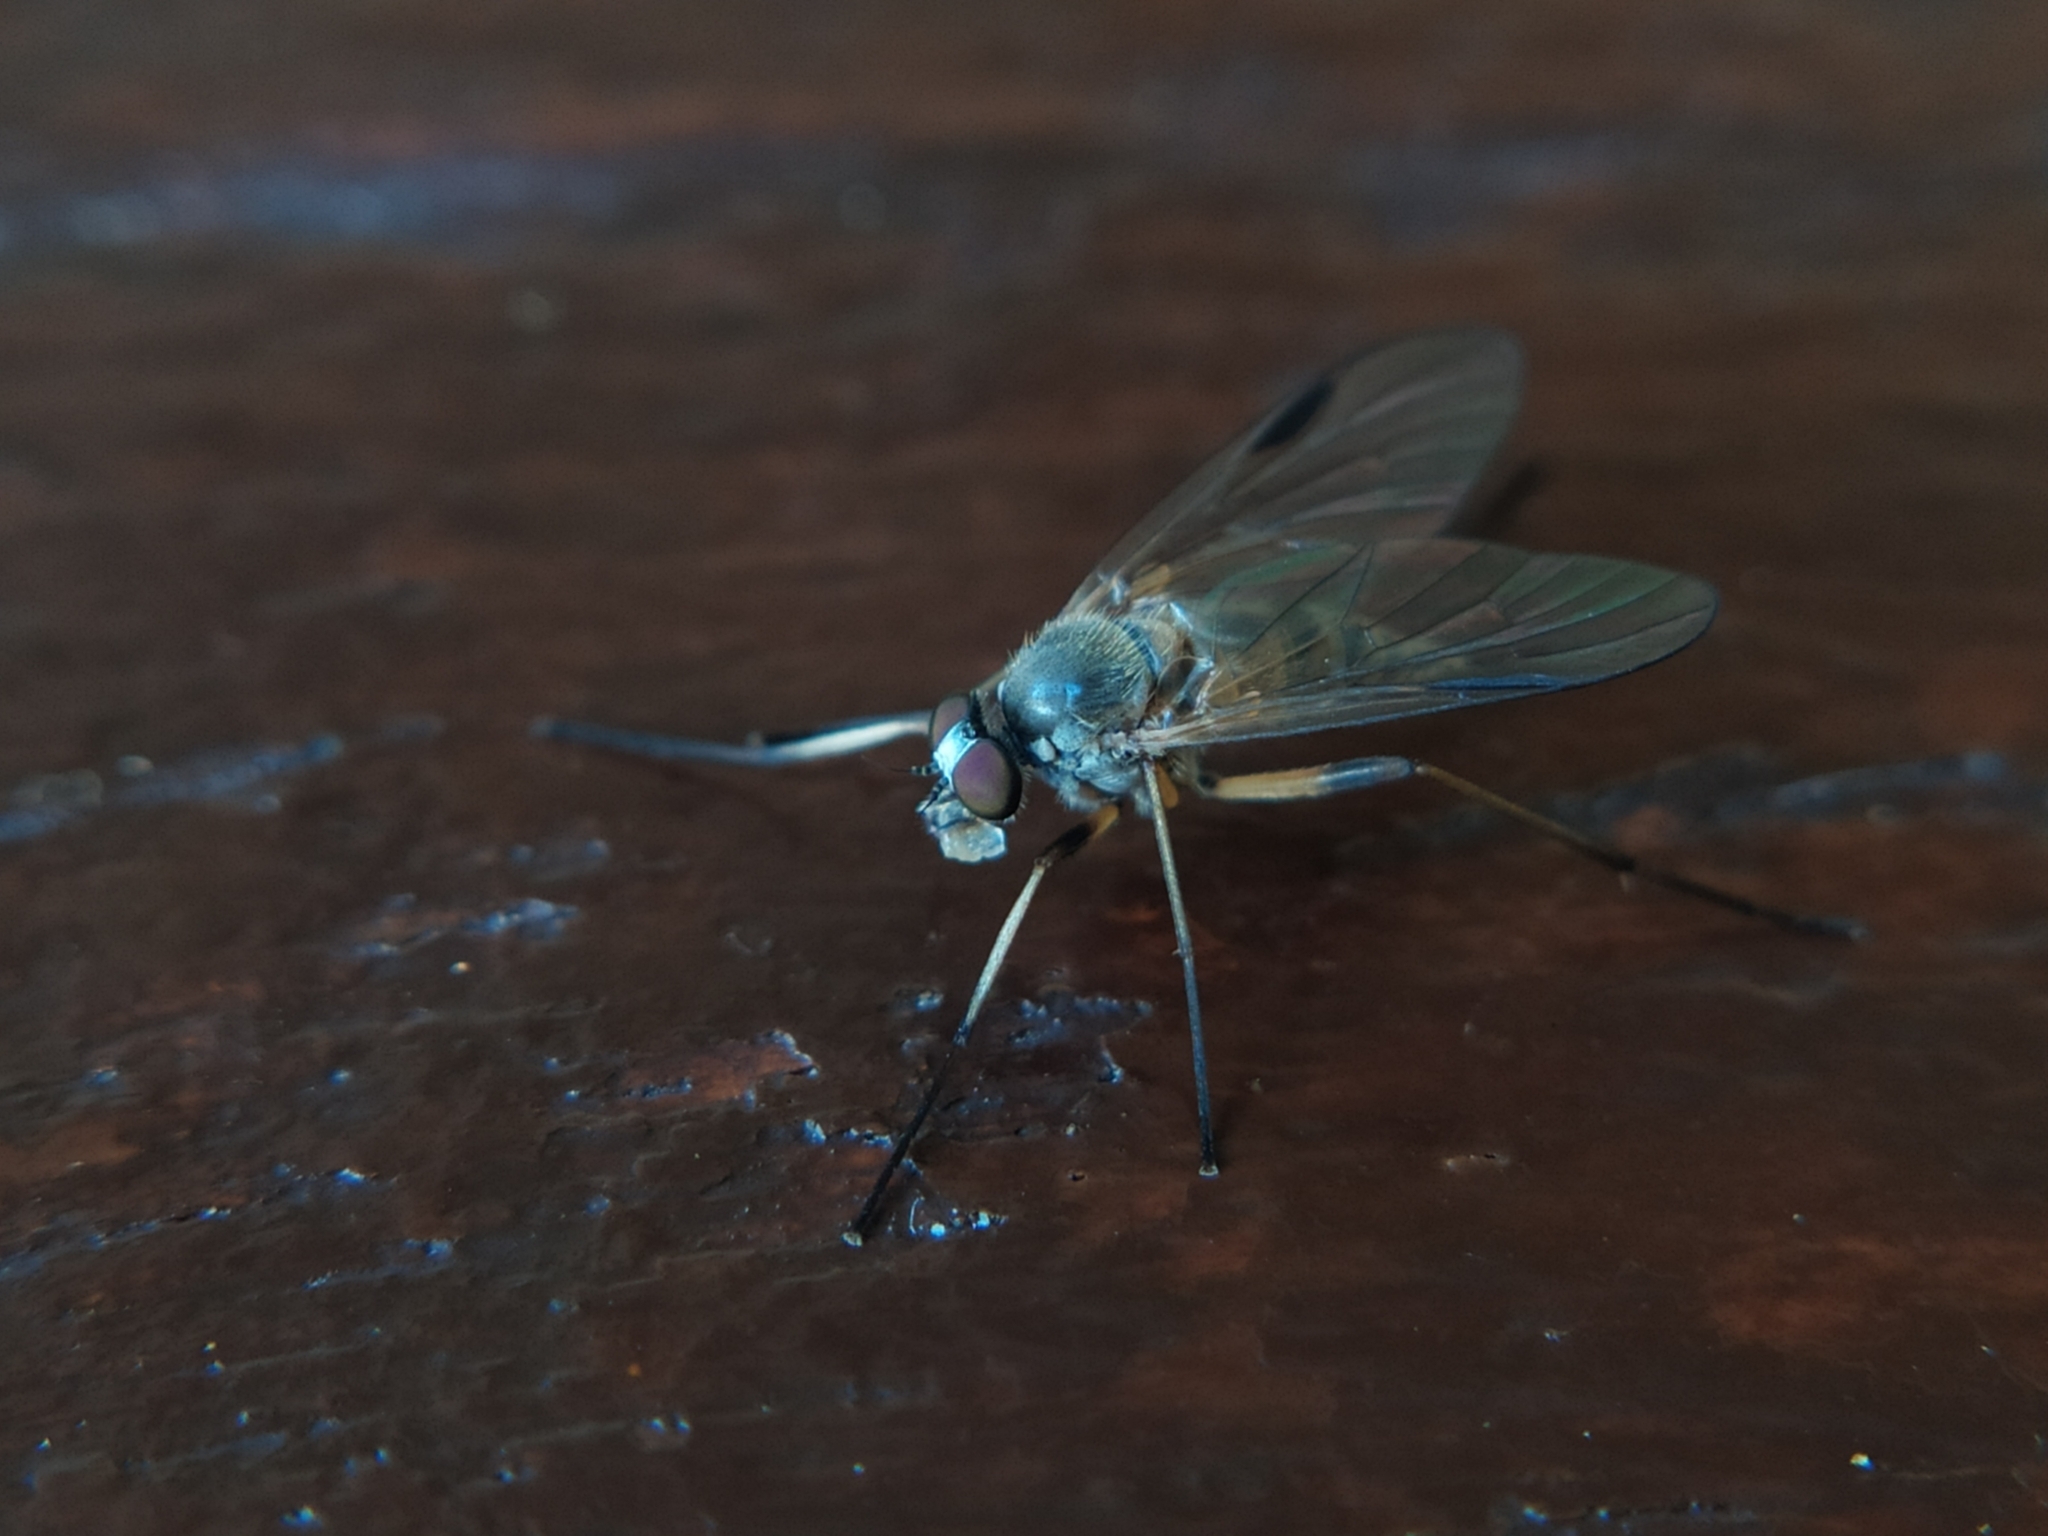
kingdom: Animalia
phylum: Arthropoda
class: Insecta
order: Diptera
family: Rhagionidae
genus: Rhagio
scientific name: Rhagio lineola
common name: Small fleck-winged snipefly
